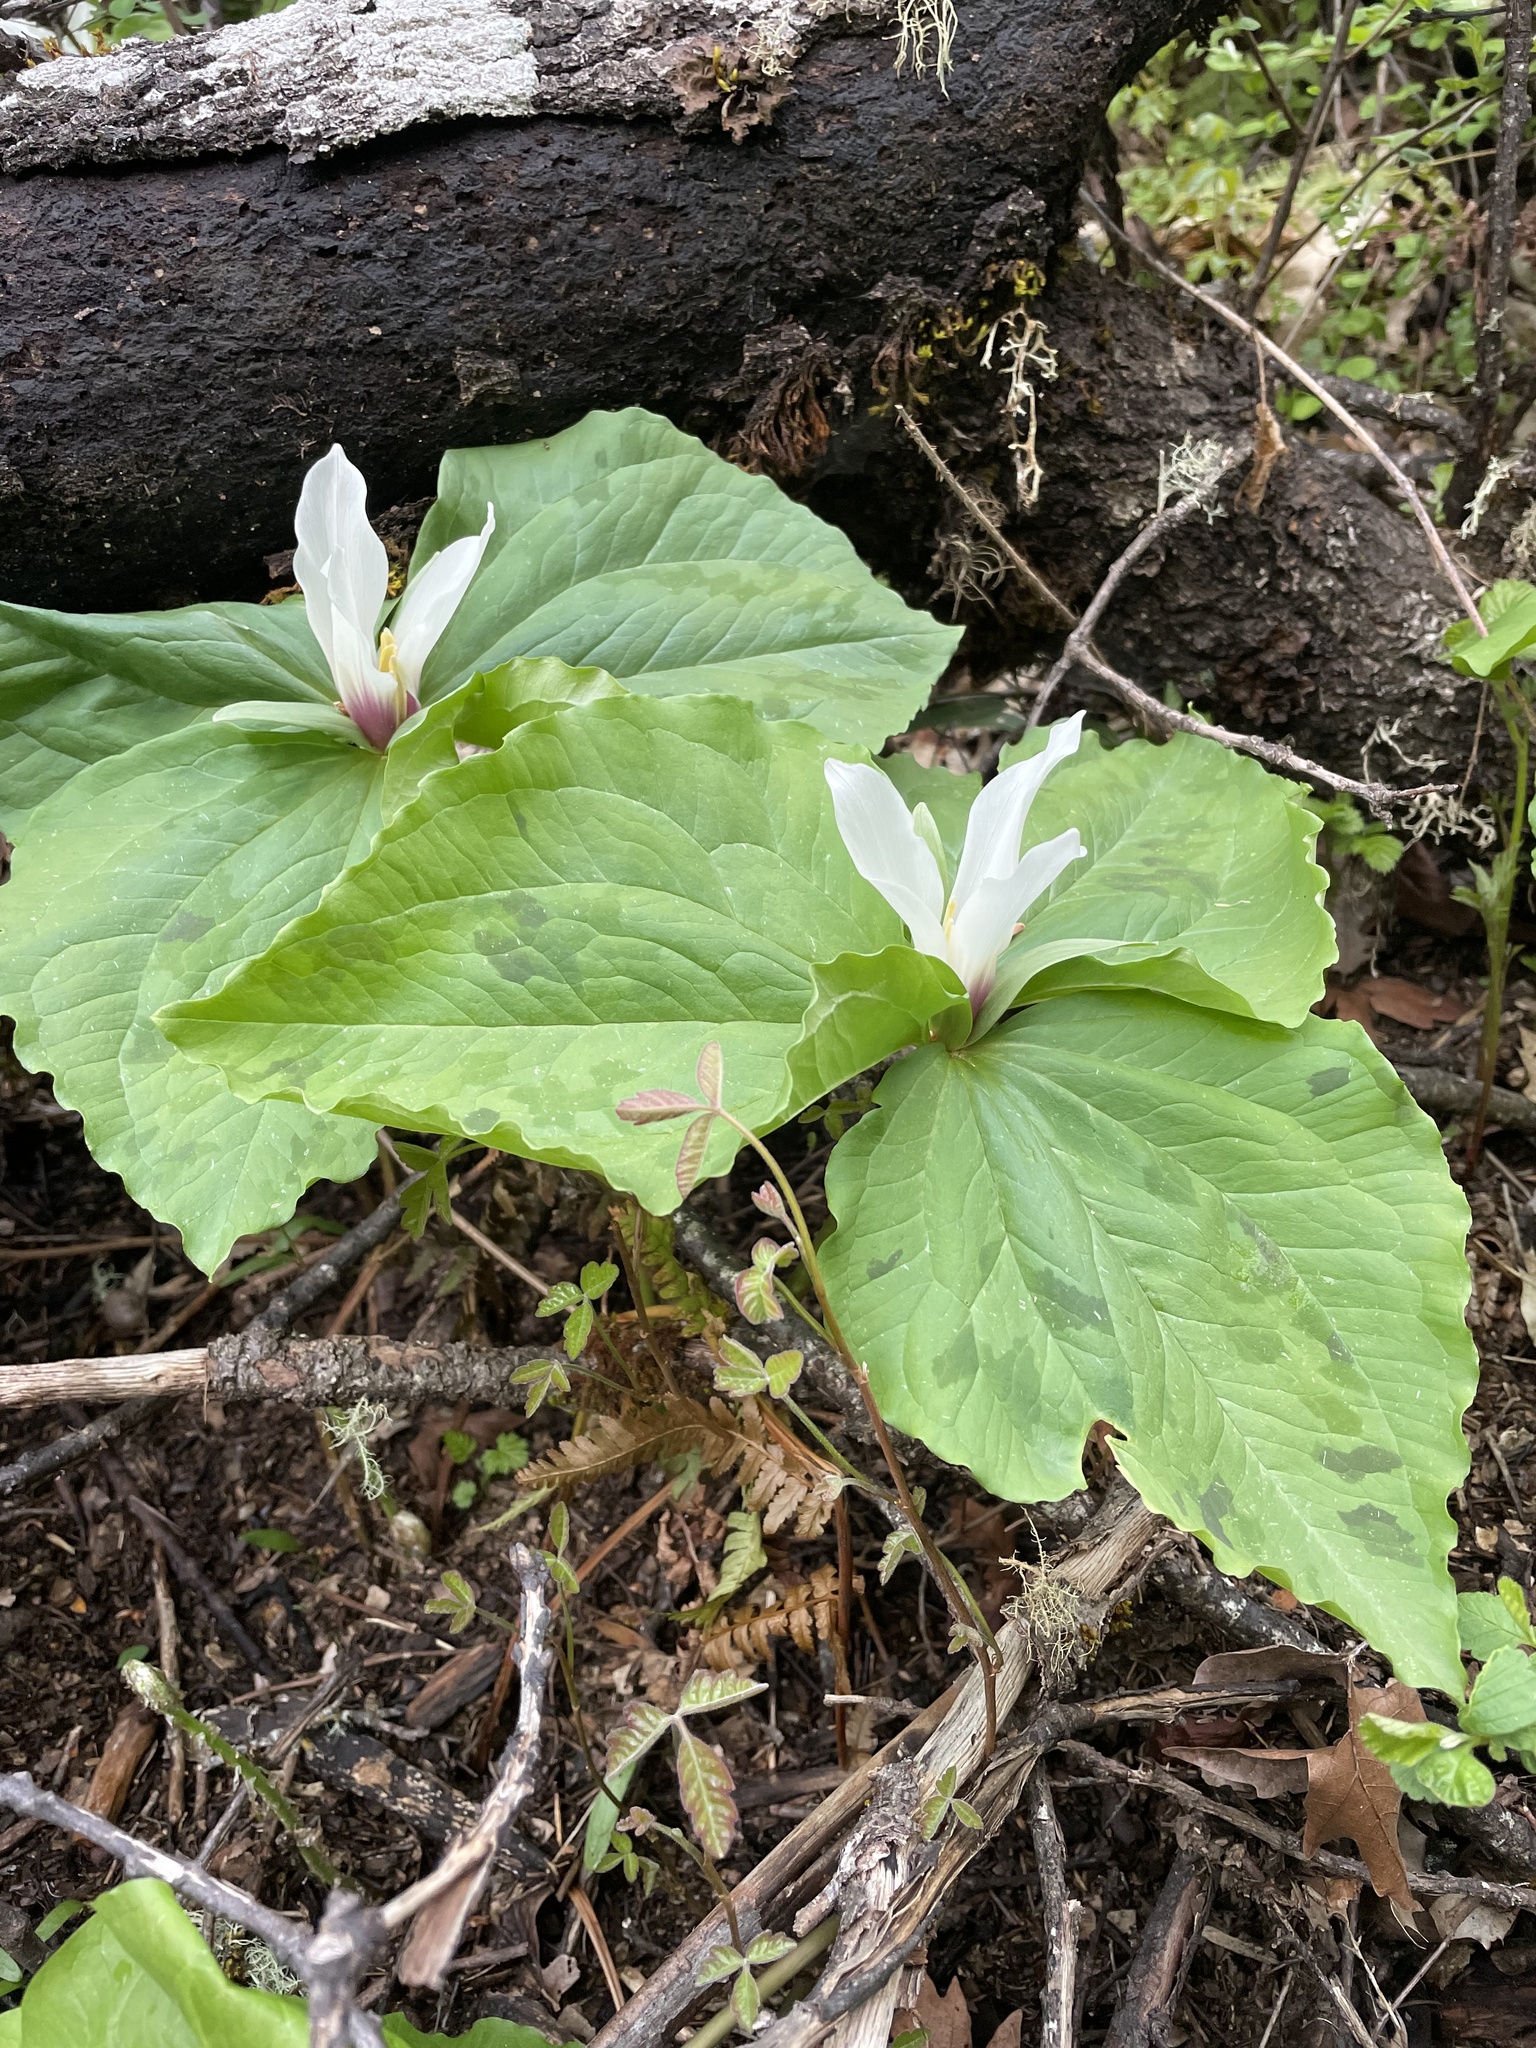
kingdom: Plantae
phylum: Tracheophyta
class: Liliopsida
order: Liliales
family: Melanthiaceae
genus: Trillium
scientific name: Trillium albidum
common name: Freeman's trillium
